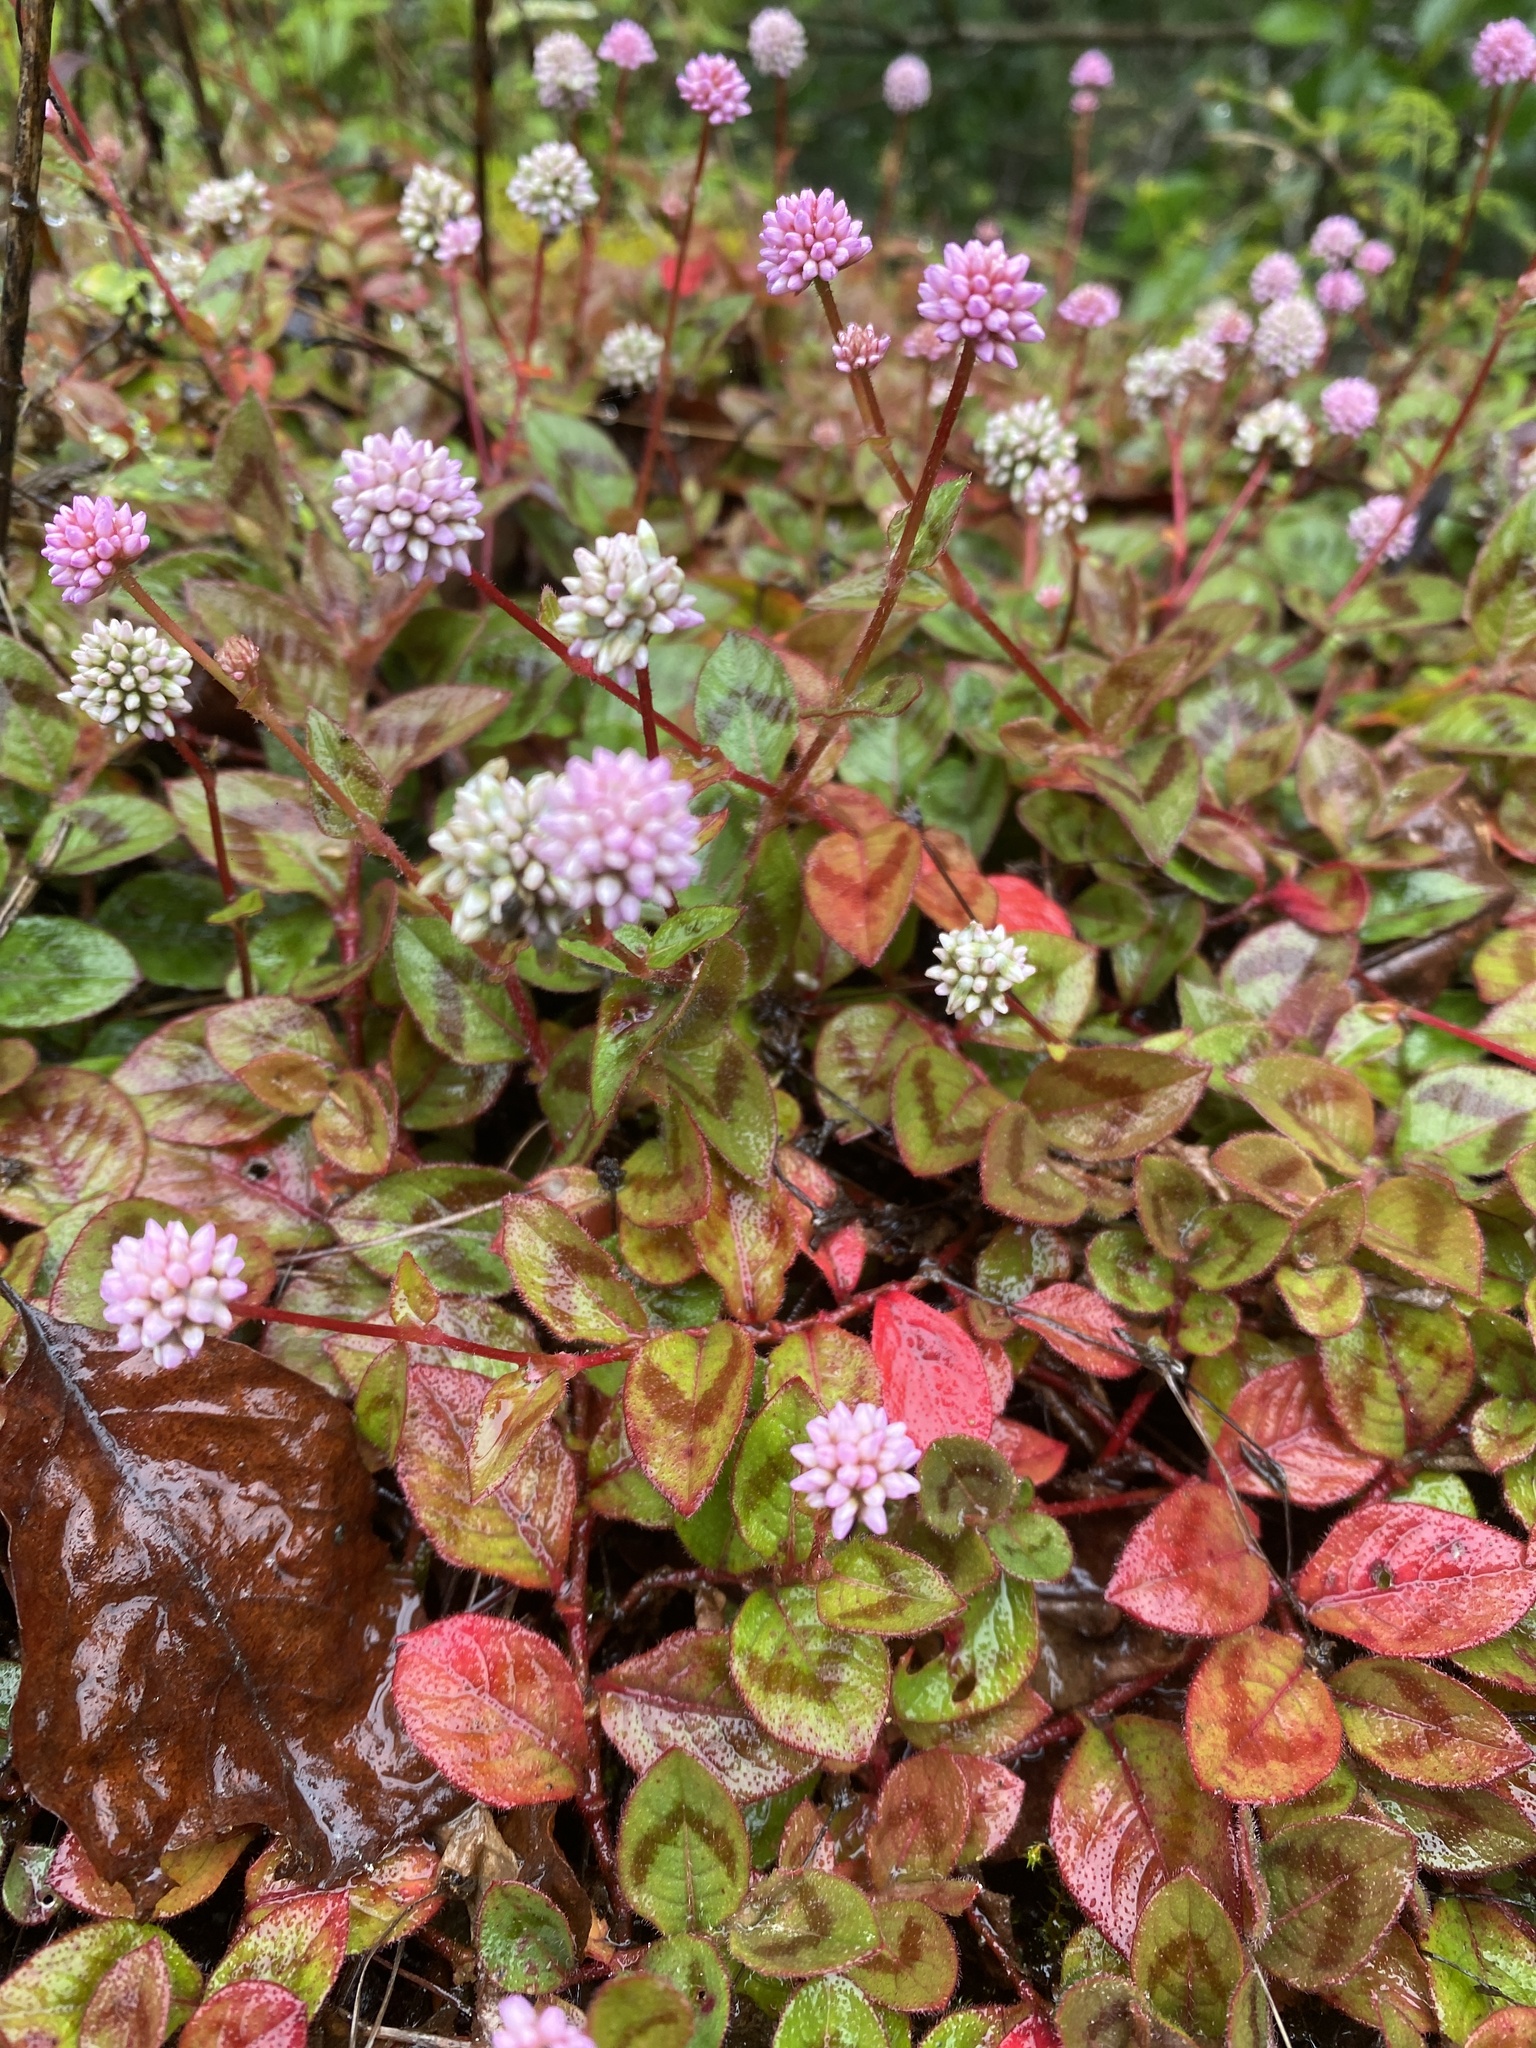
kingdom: Plantae
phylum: Tracheophyta
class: Magnoliopsida
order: Caryophyllales
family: Polygonaceae
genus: Persicaria
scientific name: Persicaria capitata
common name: Pinkhead smartweed
